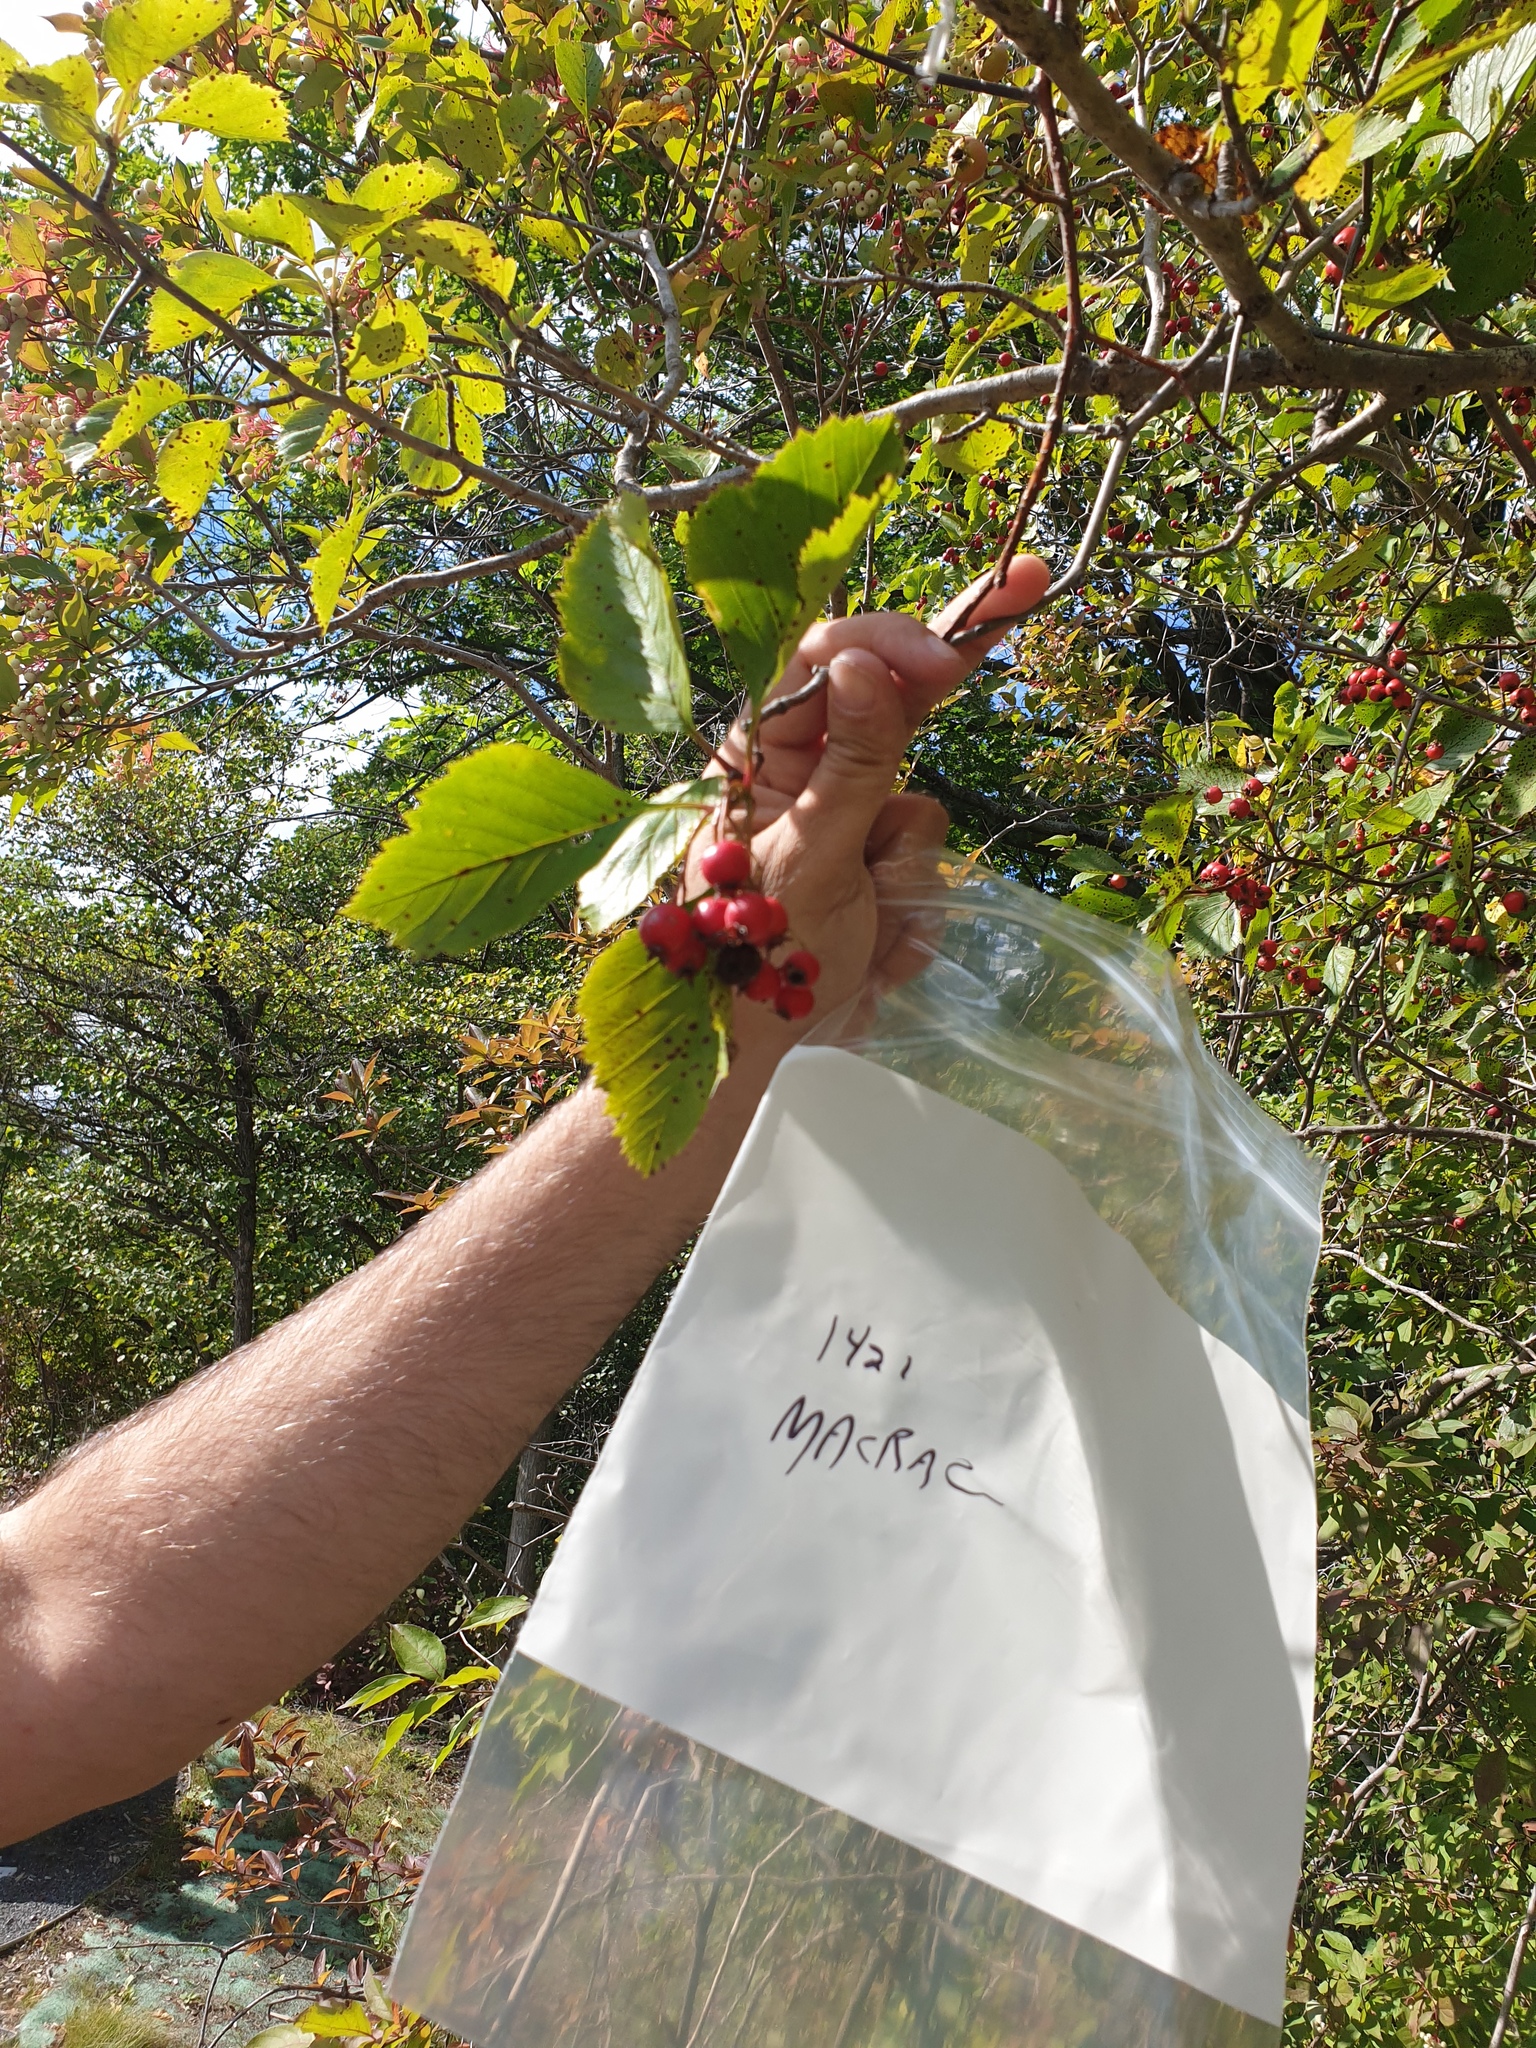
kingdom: Plantae
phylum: Tracheophyta
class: Magnoliopsida
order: Rosales
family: Rosaceae
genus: Crataegus
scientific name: Crataegus macracantha
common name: Large-thorn hawthorn
